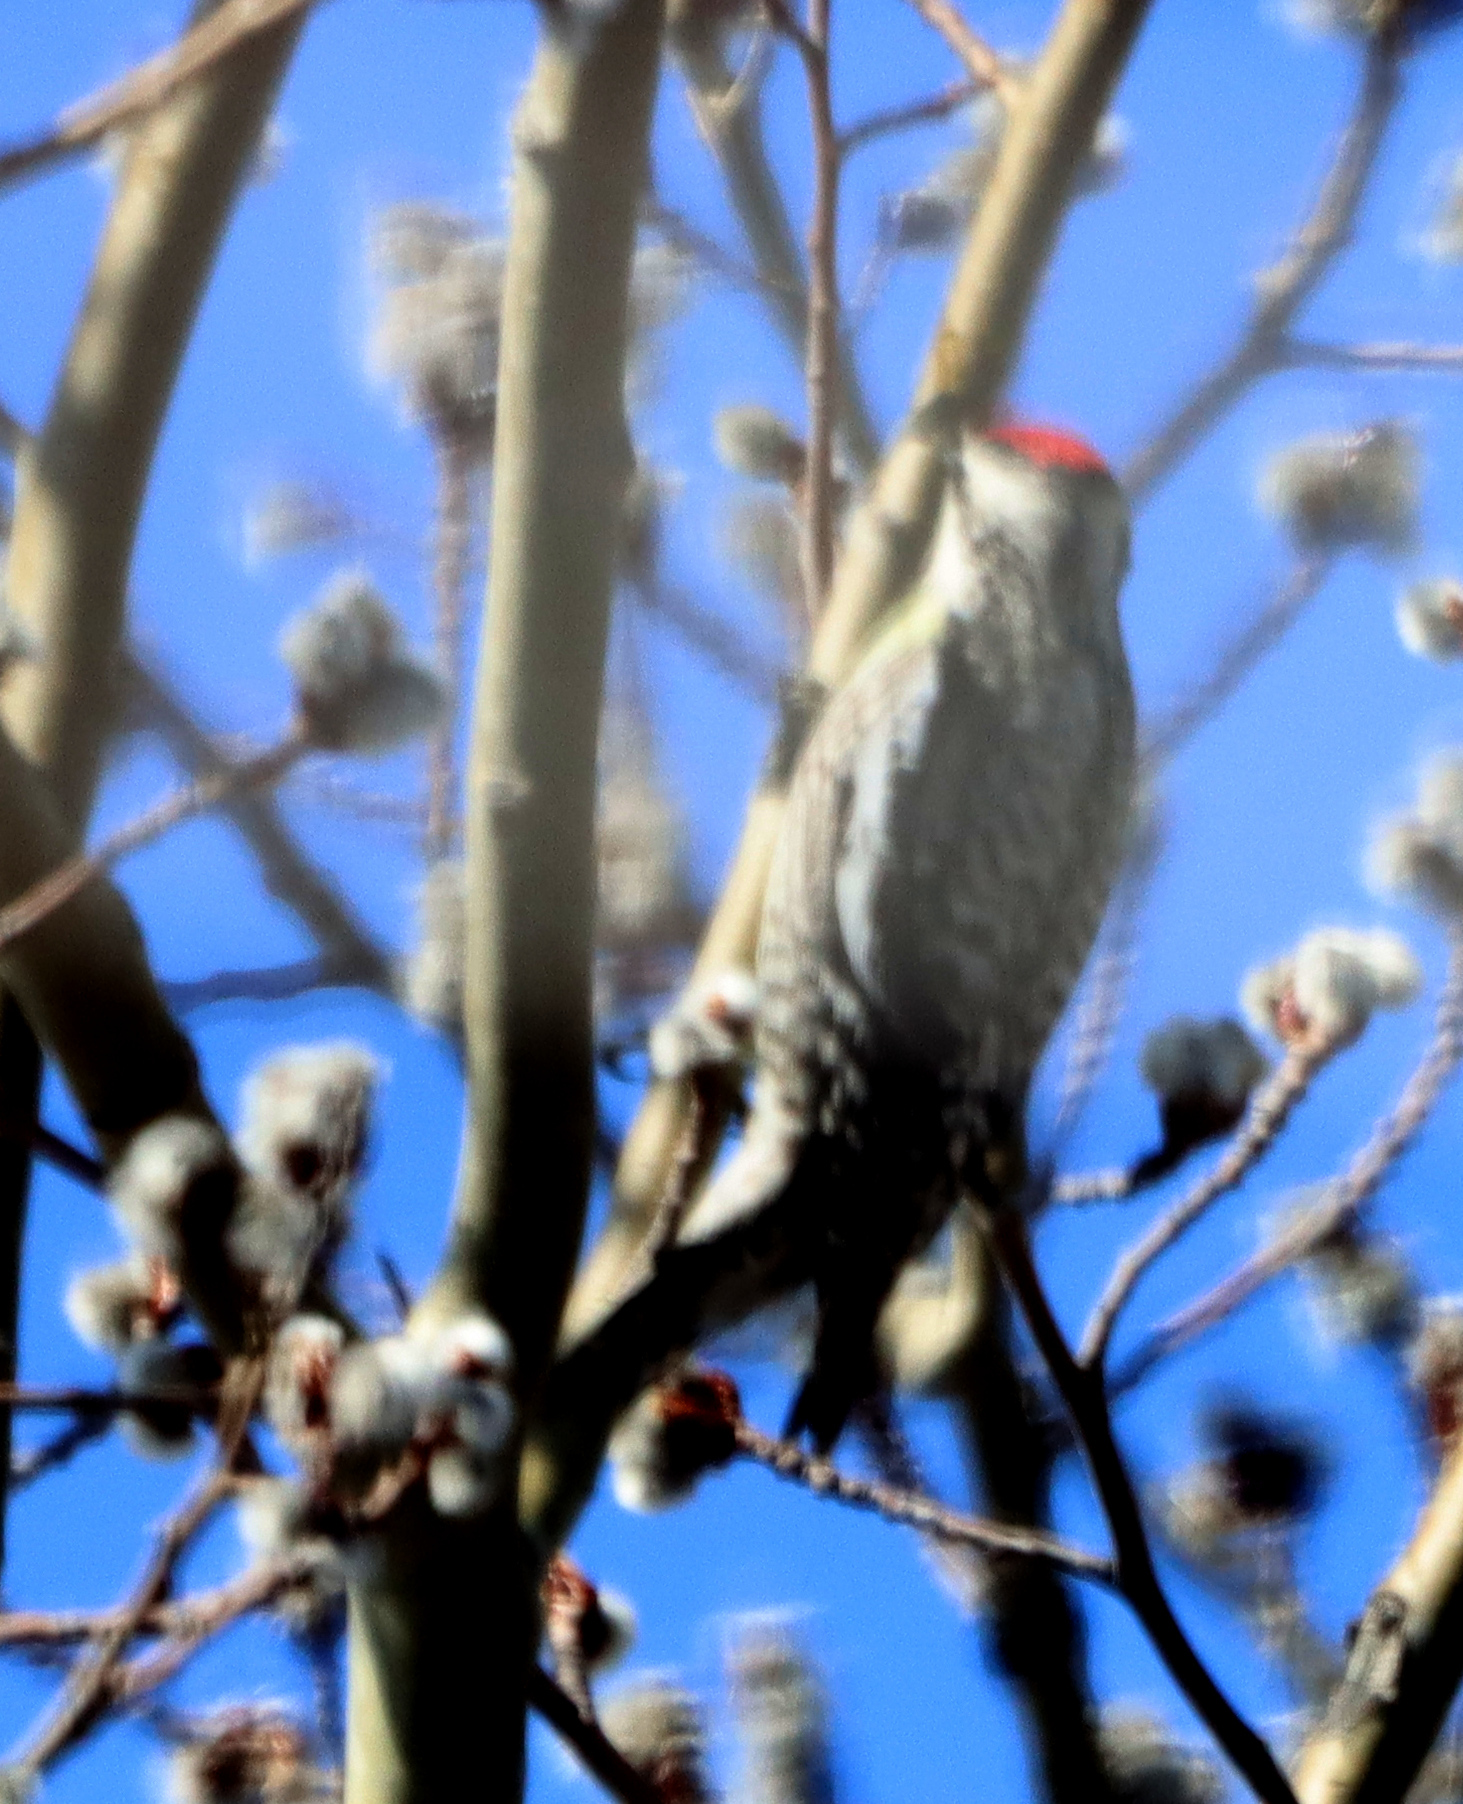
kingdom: Animalia
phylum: Chordata
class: Aves
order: Piciformes
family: Picidae
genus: Sphyrapicus
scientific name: Sphyrapicus varius
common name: Yellow-bellied sapsucker
